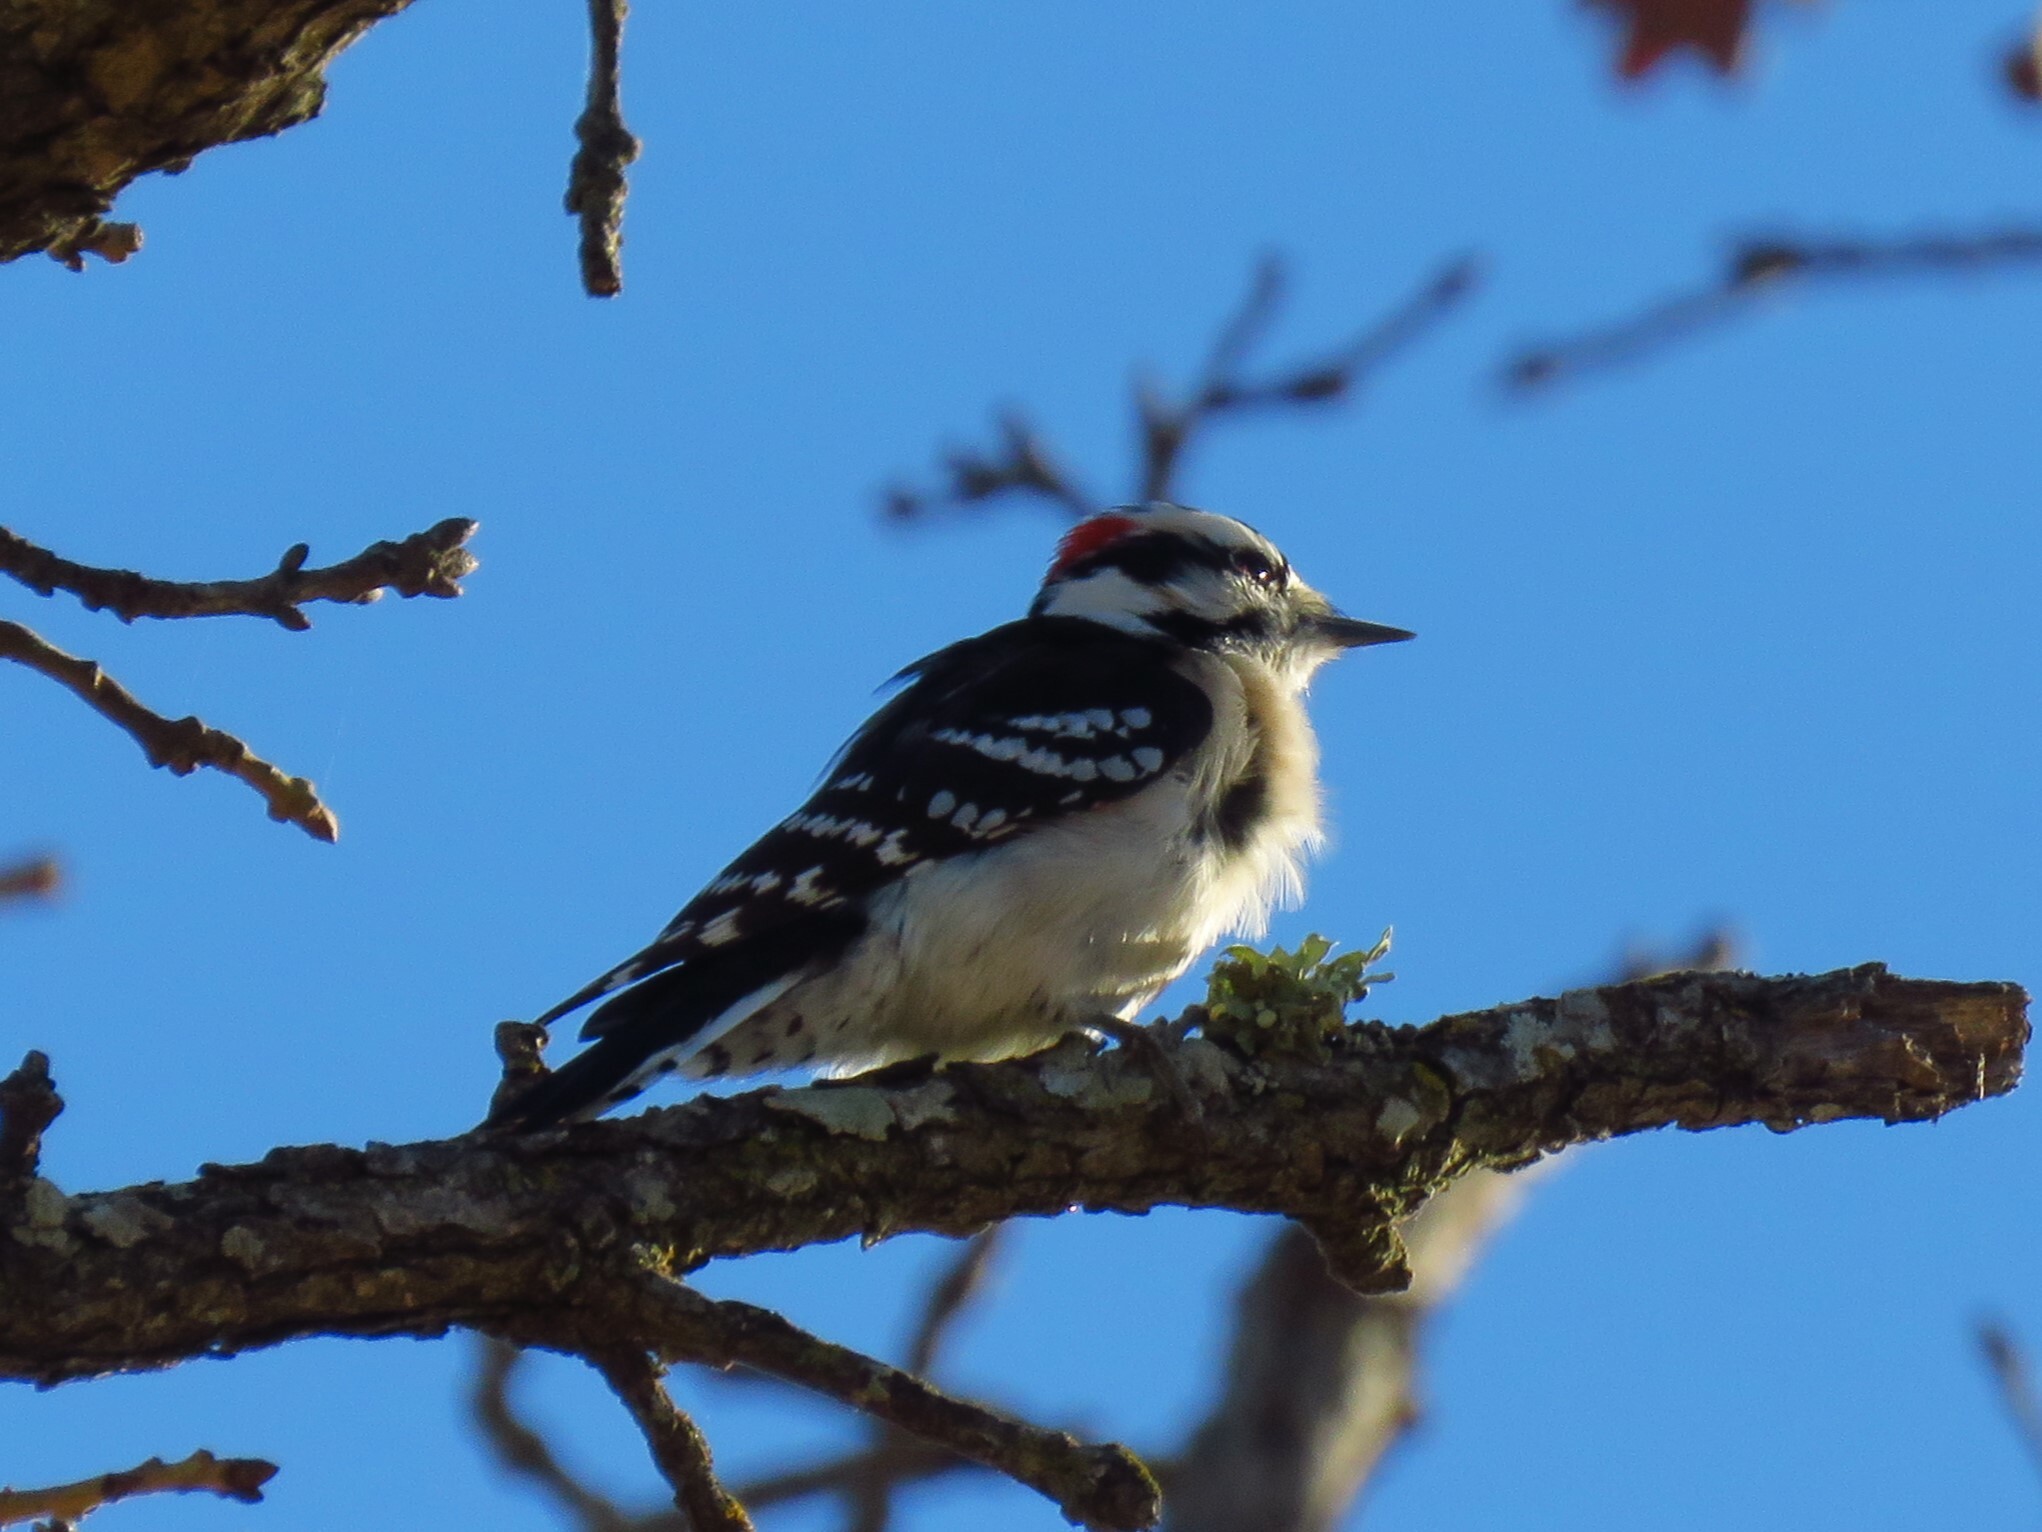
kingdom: Animalia
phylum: Chordata
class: Aves
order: Piciformes
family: Picidae
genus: Dryobates
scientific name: Dryobates pubescens
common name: Downy woodpecker
